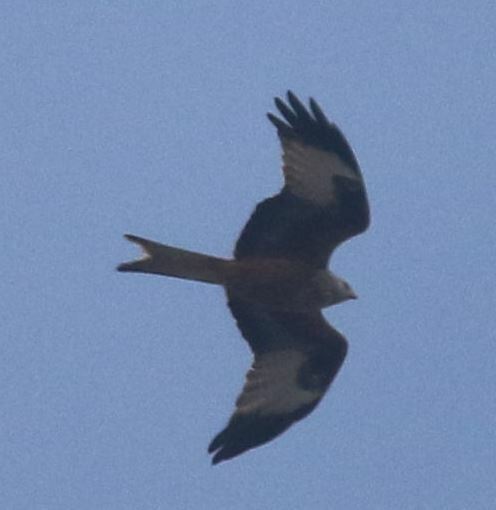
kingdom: Animalia
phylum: Chordata
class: Aves
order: Accipitriformes
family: Accipitridae
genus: Milvus
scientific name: Milvus milvus
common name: Red kite
